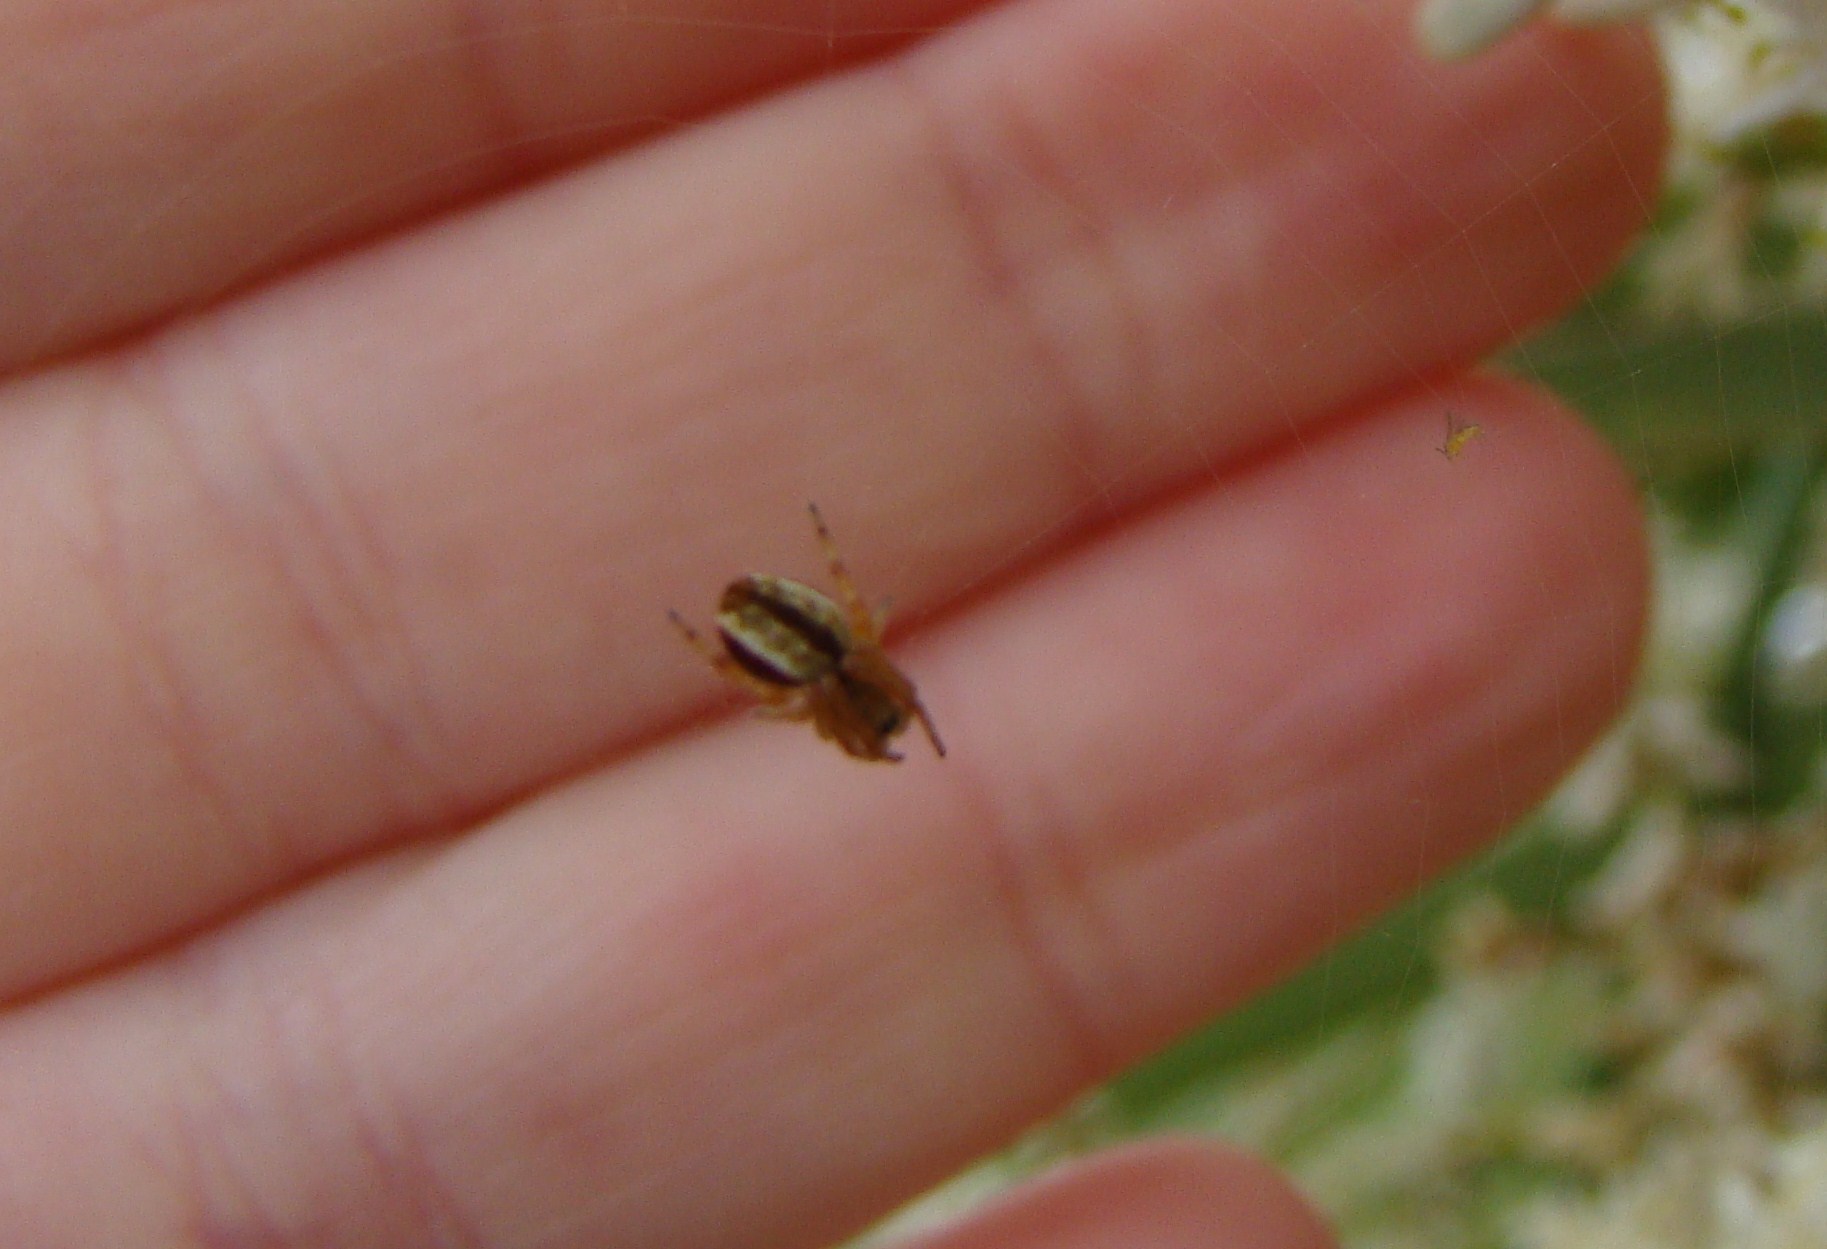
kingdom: Animalia
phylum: Arthropoda
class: Arachnida
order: Araneae
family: Araneidae
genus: Salsa
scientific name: Salsa fuliginata
